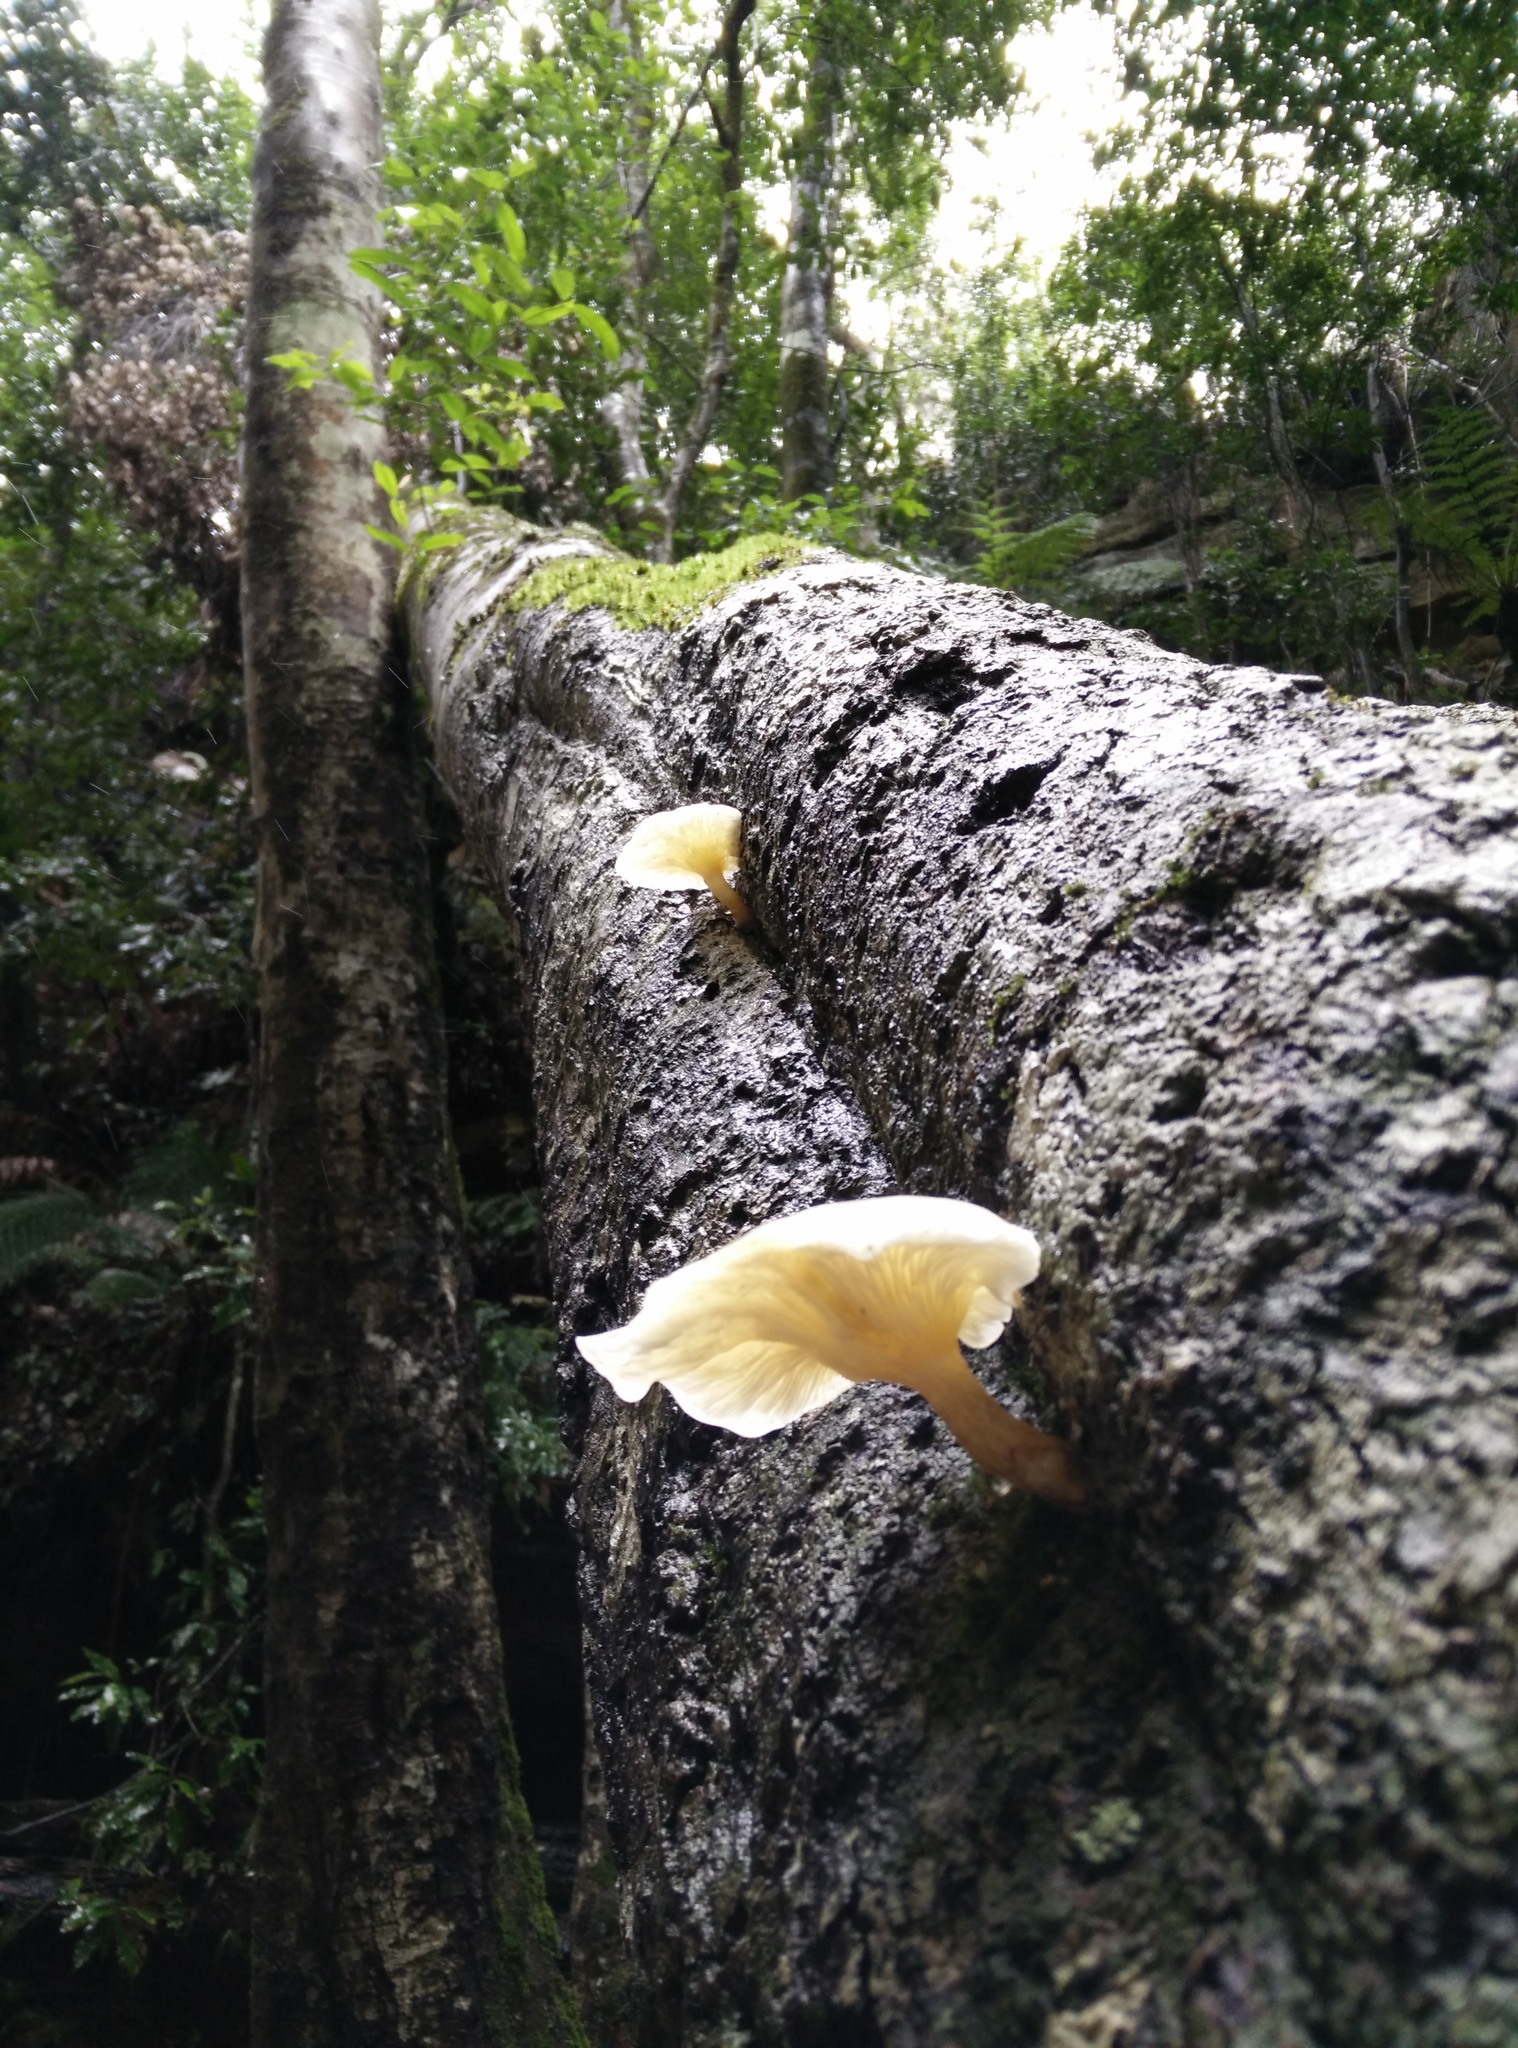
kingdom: Fungi
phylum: Basidiomycota
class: Agaricomycetes
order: Agaricales
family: Omphalotaceae
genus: Omphalotus
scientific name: Omphalotus nidiformis
